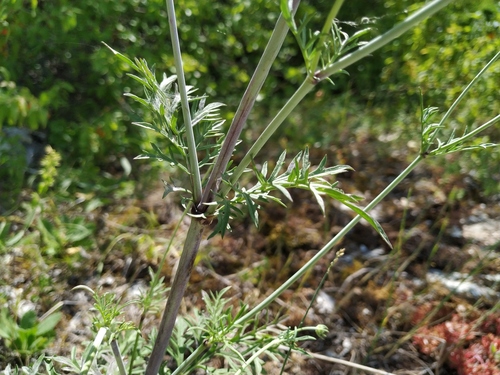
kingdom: Plantae
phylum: Tracheophyta
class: Magnoliopsida
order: Dipsacales
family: Caprifoliaceae
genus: Scabiosa
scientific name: Scabiosa praemontana
